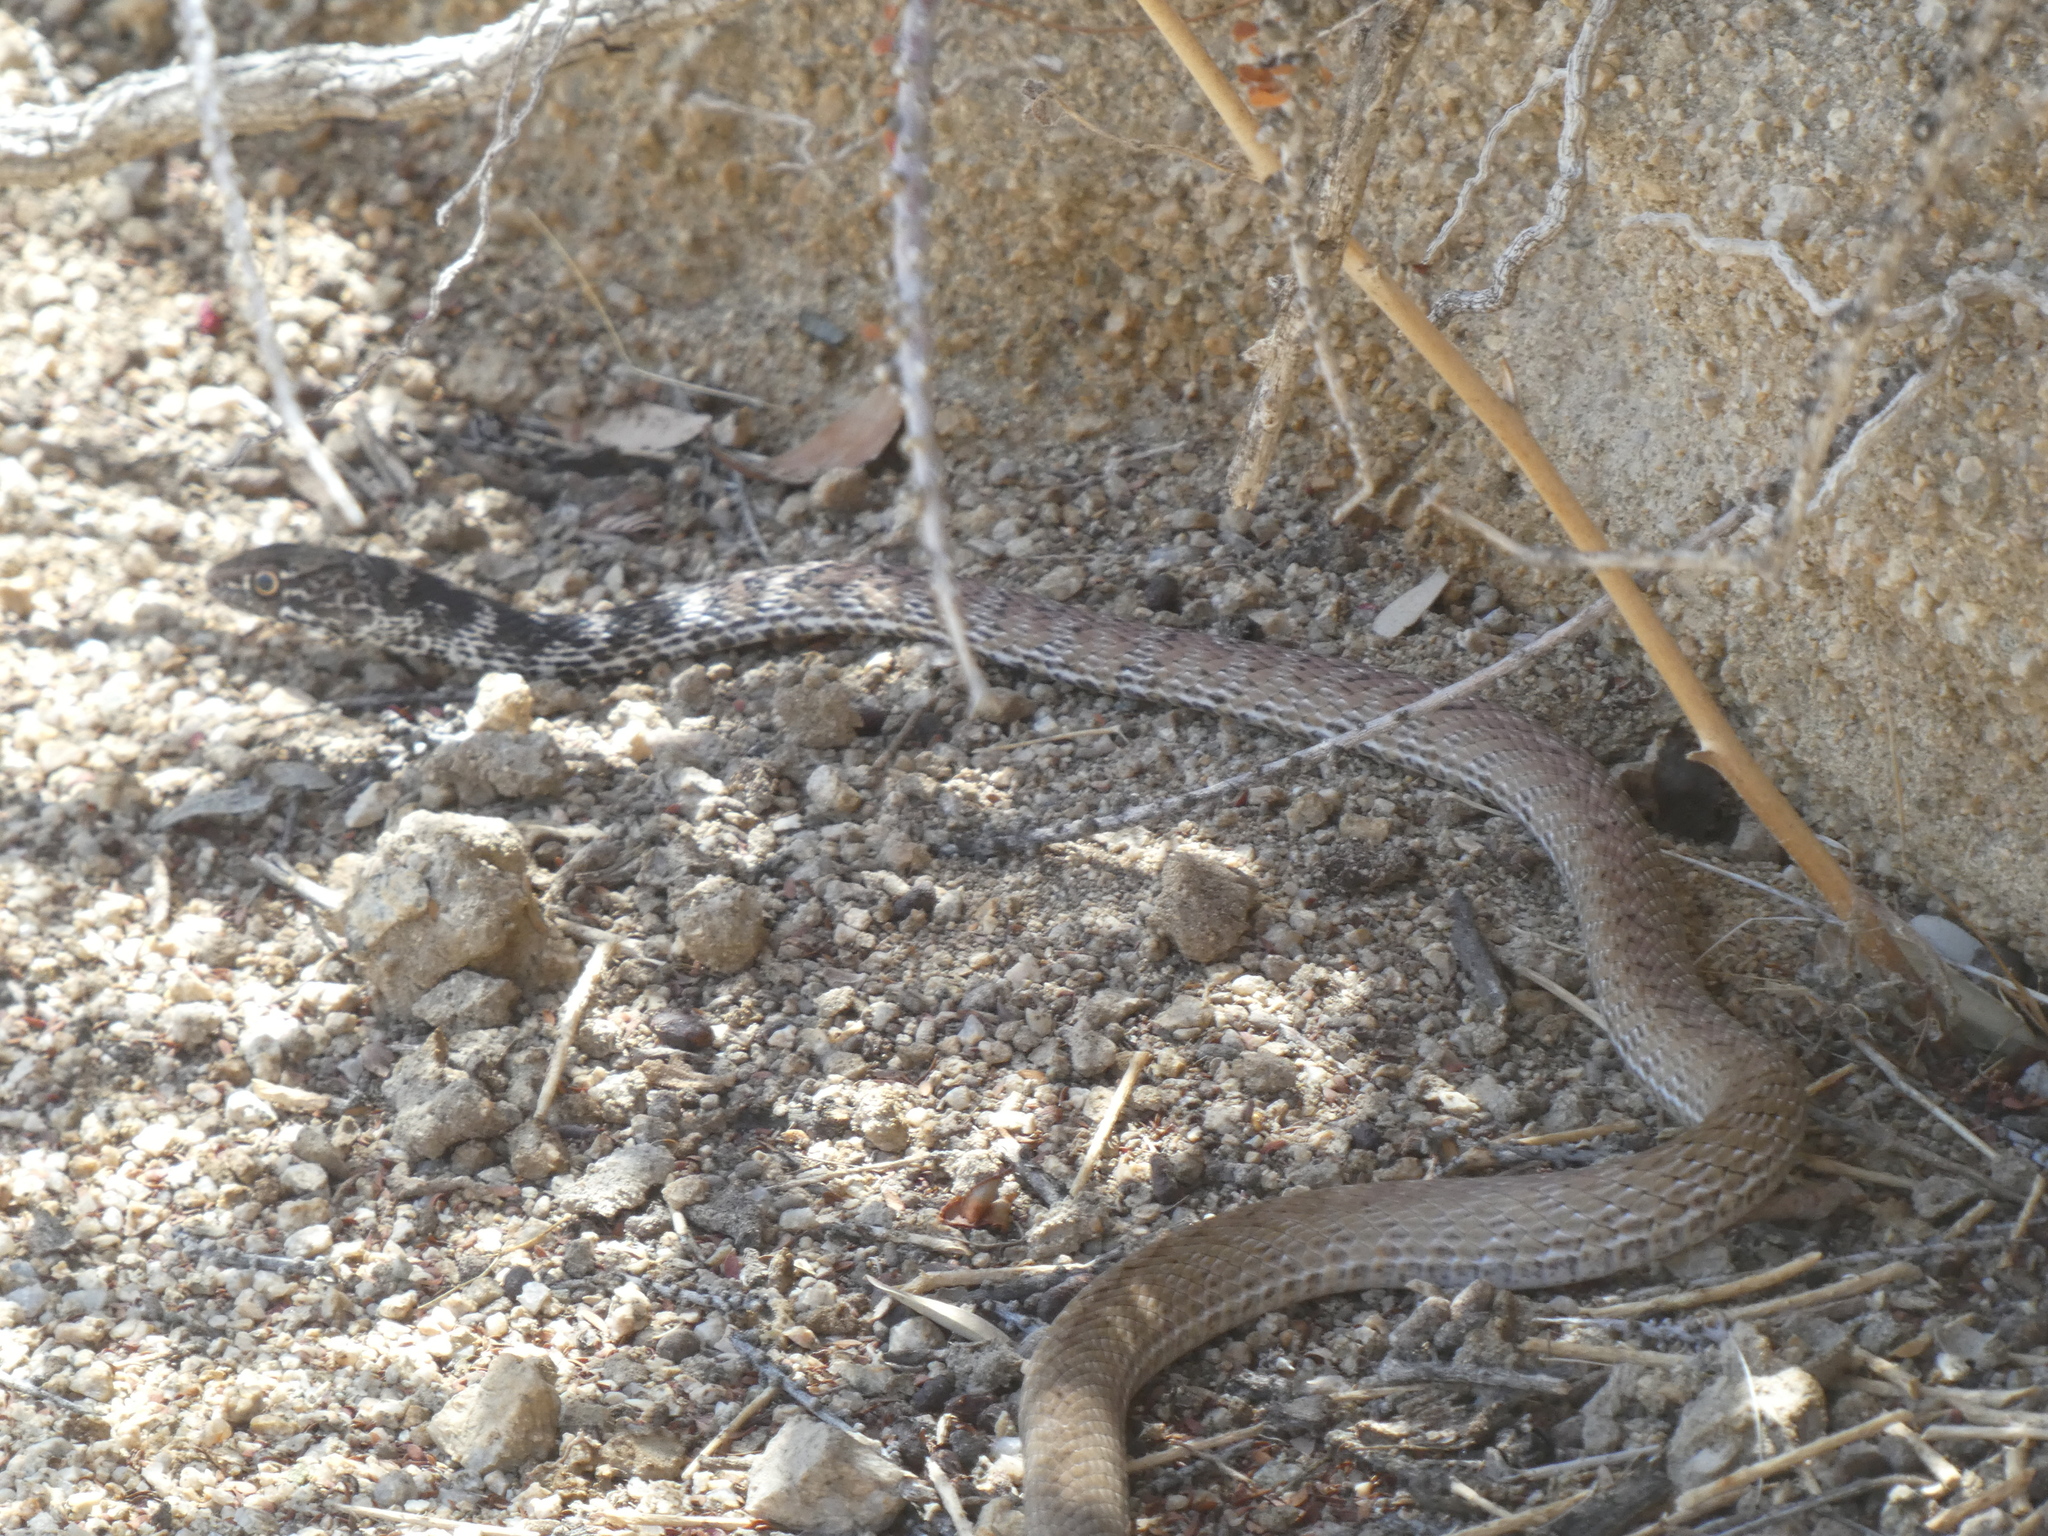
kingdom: Animalia
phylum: Chordata
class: Squamata
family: Colubridae
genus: Masticophis
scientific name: Masticophis flagellum
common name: Coachwhip
